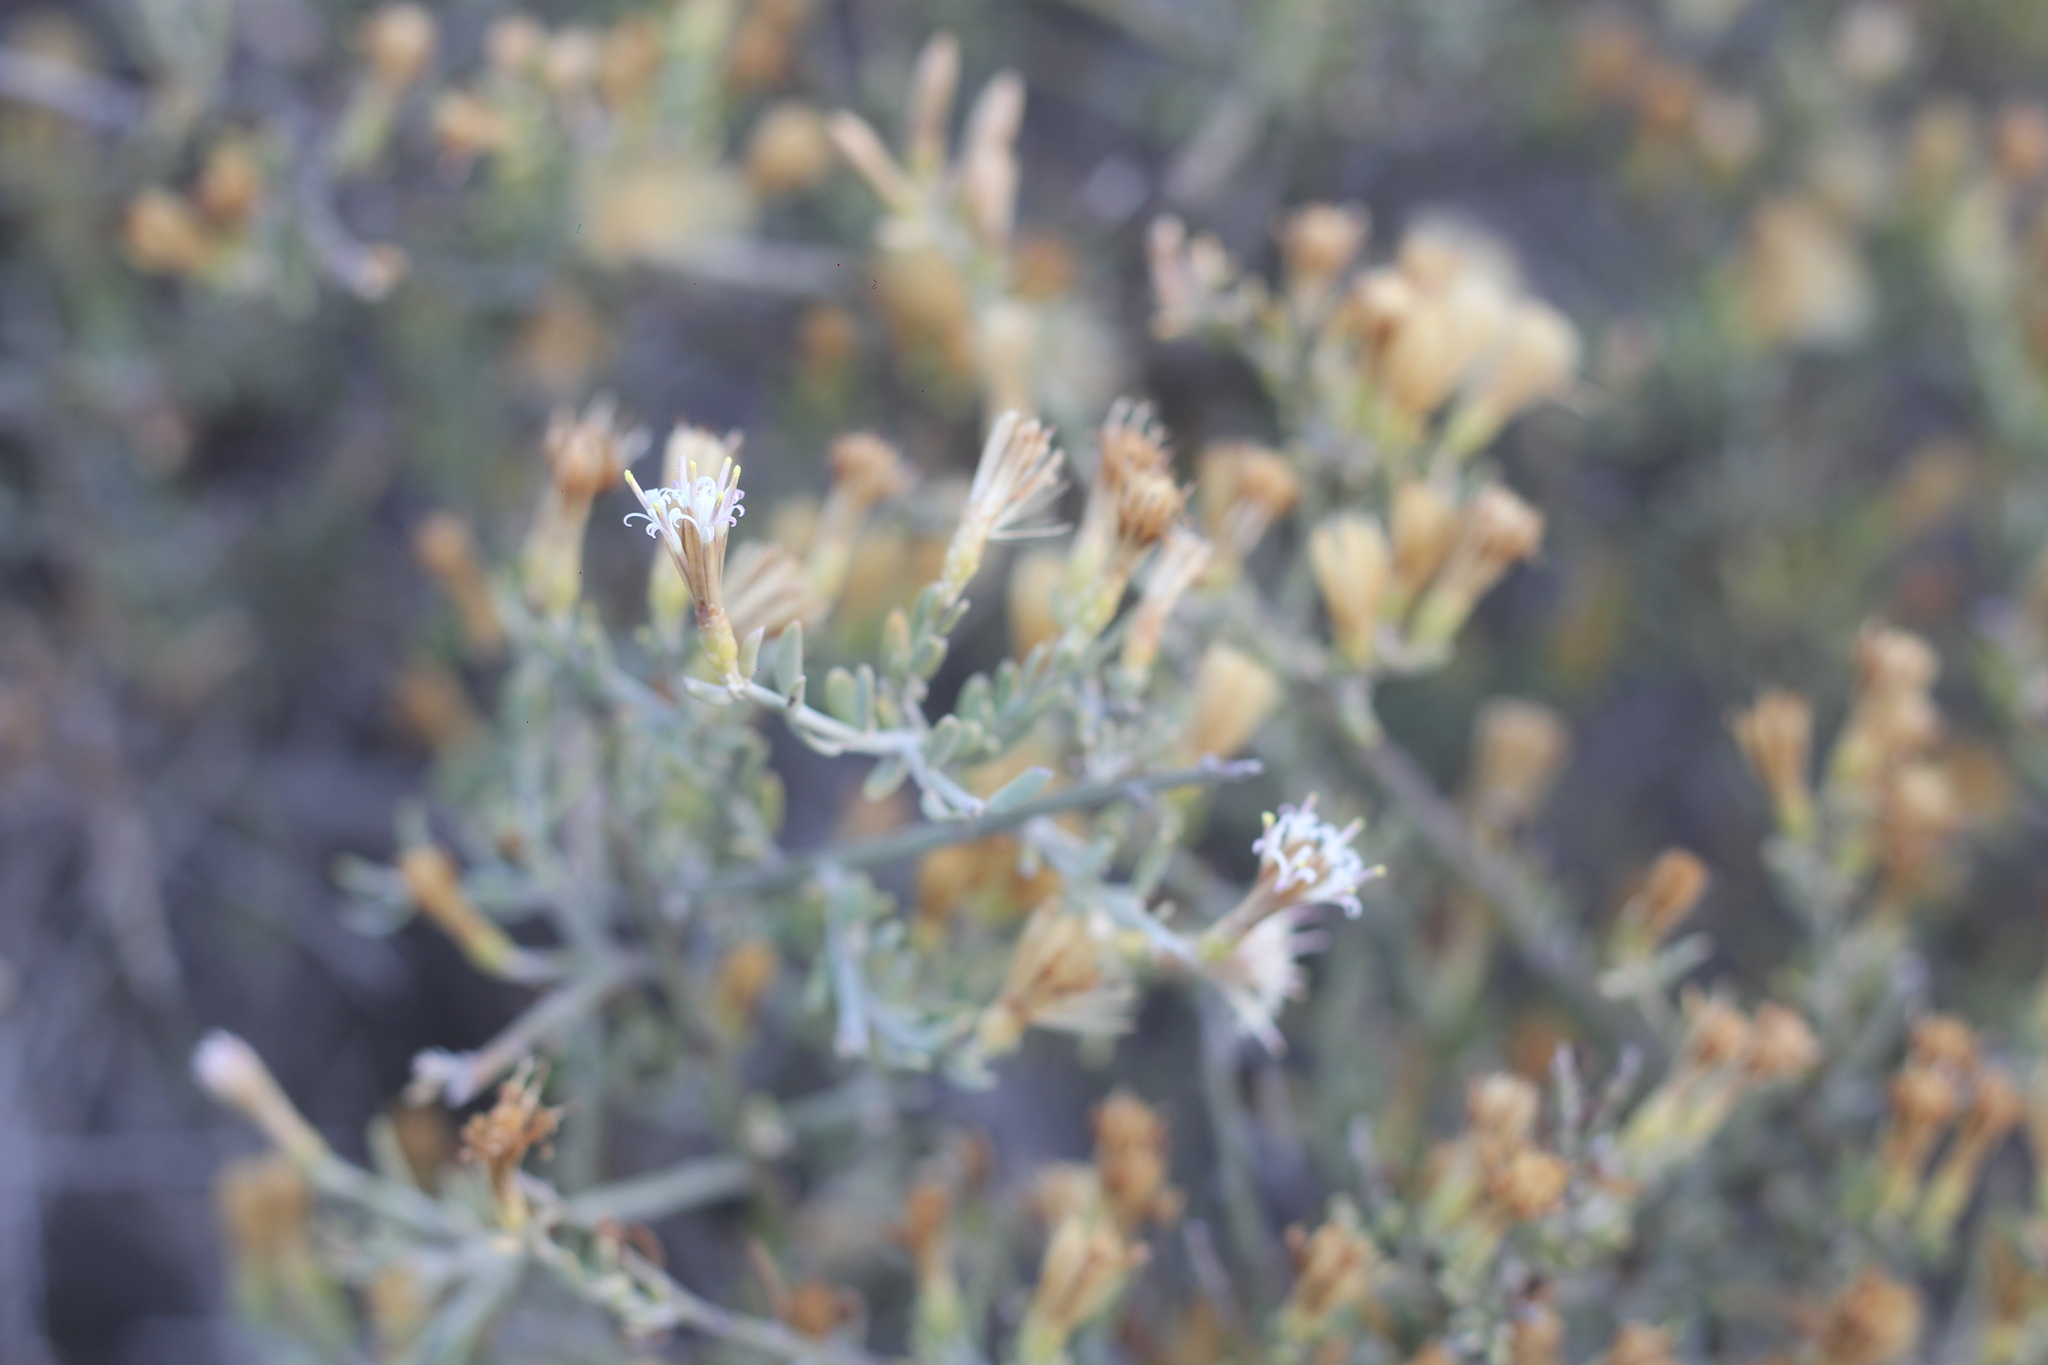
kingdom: Plantae
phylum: Tracheophyta
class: Magnoliopsida
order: Asterales
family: Asteraceae
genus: Cyclolepis
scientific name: Cyclolepis genistoides
